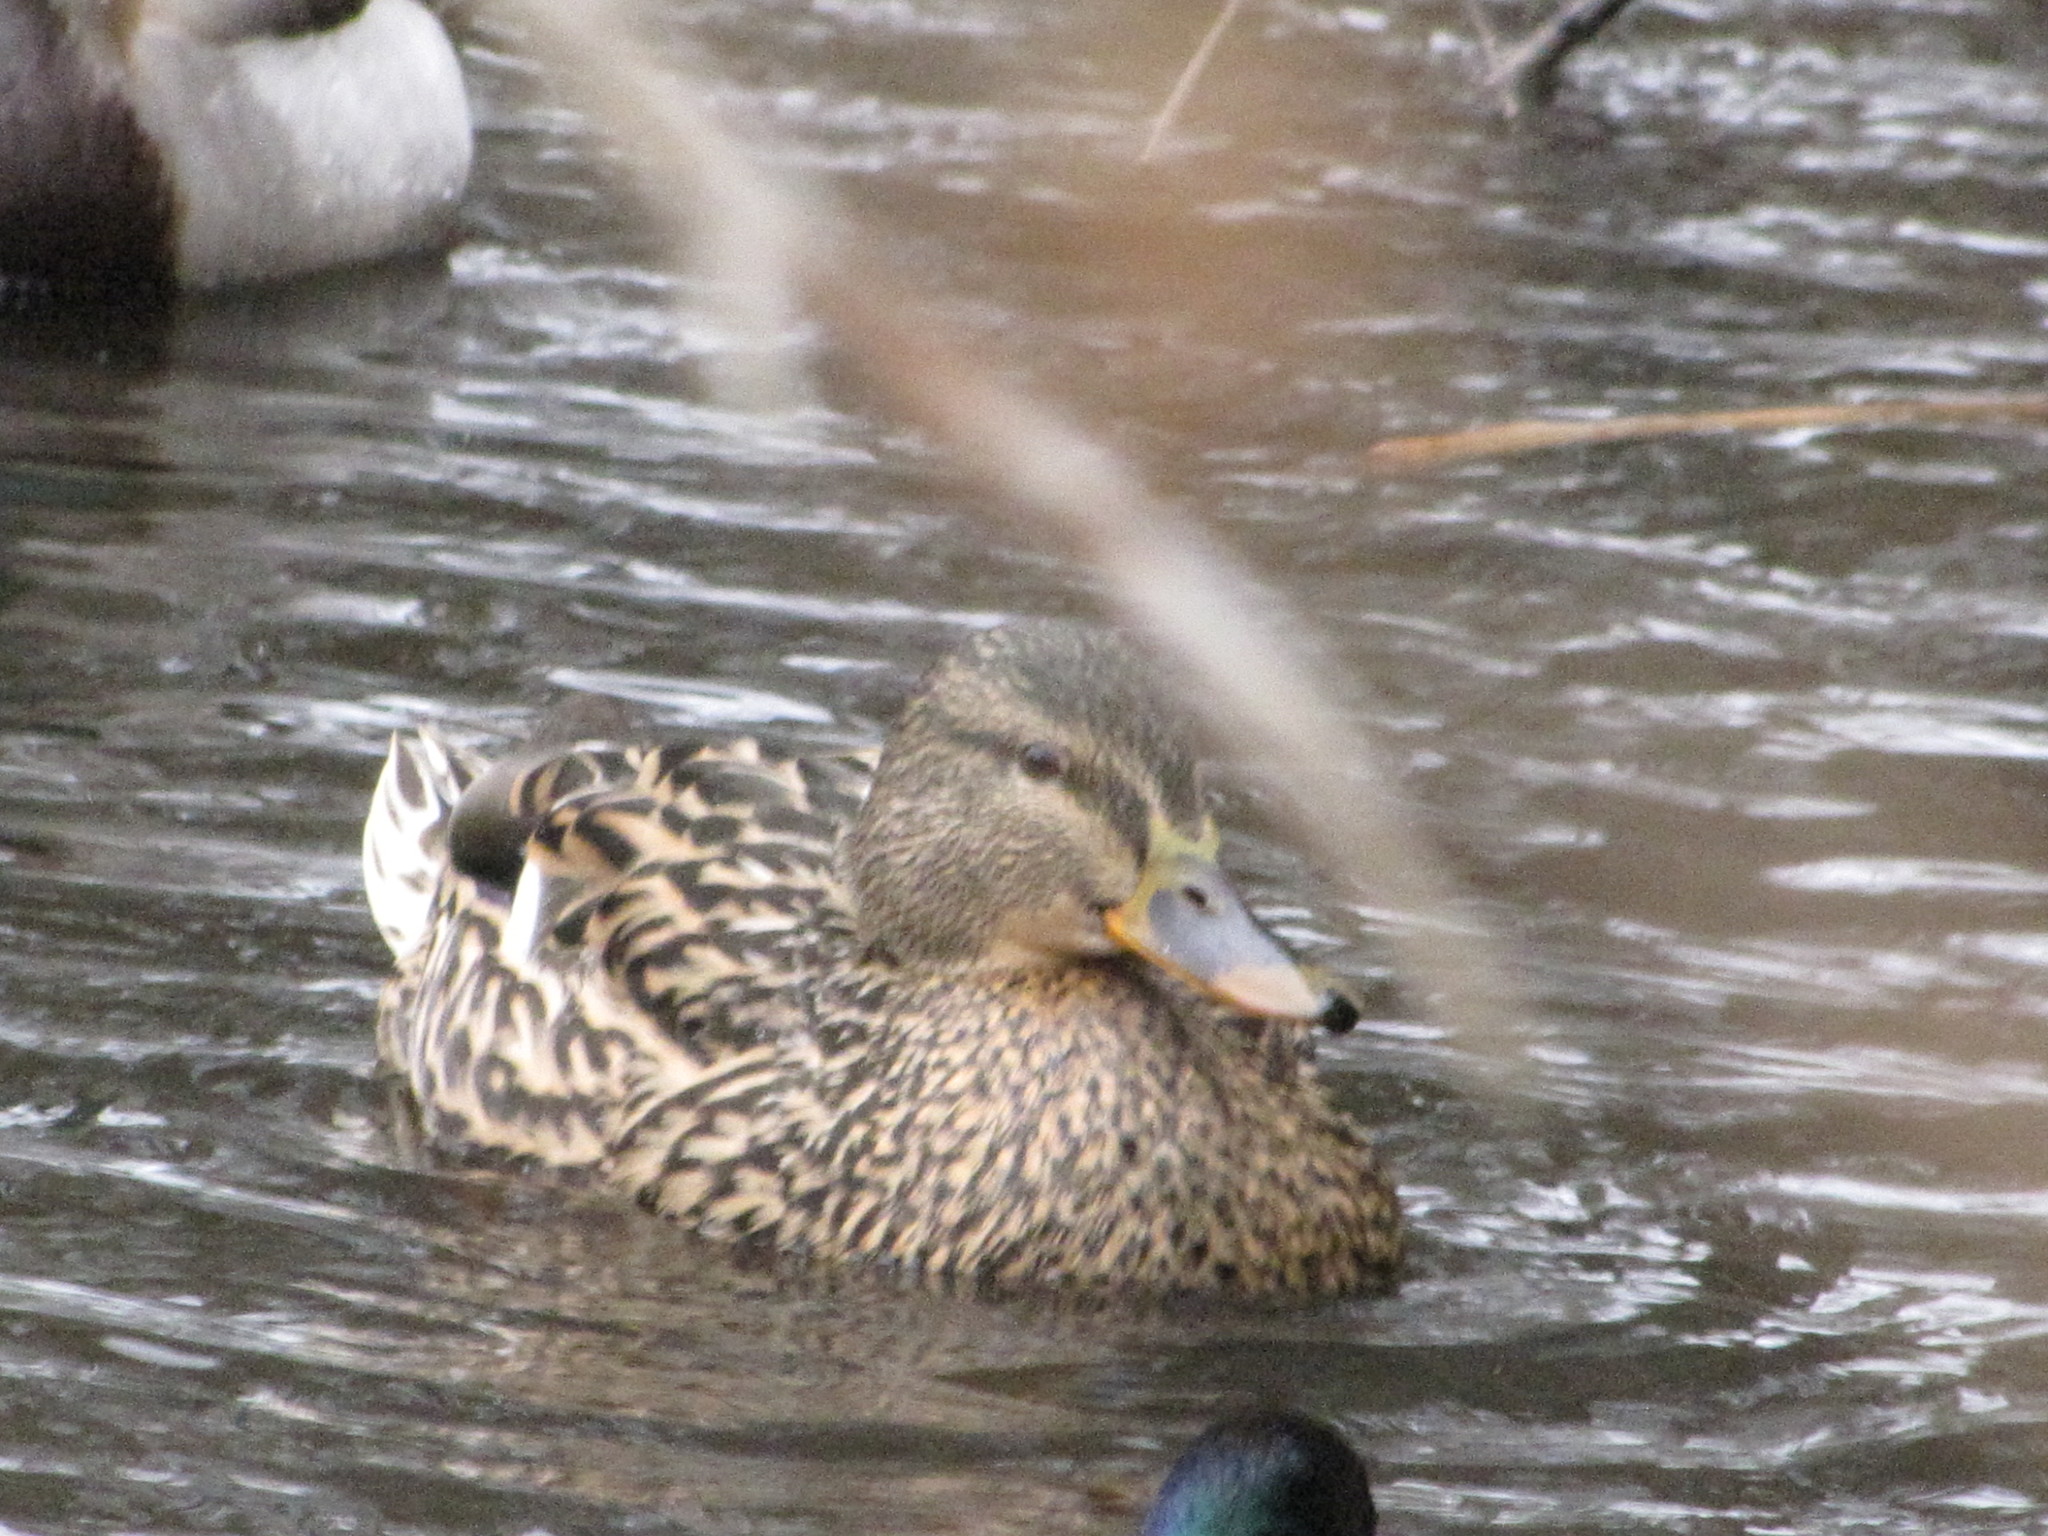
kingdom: Animalia
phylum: Chordata
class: Aves
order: Anseriformes
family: Anatidae
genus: Anas
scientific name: Anas platyrhynchos
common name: Mallard
